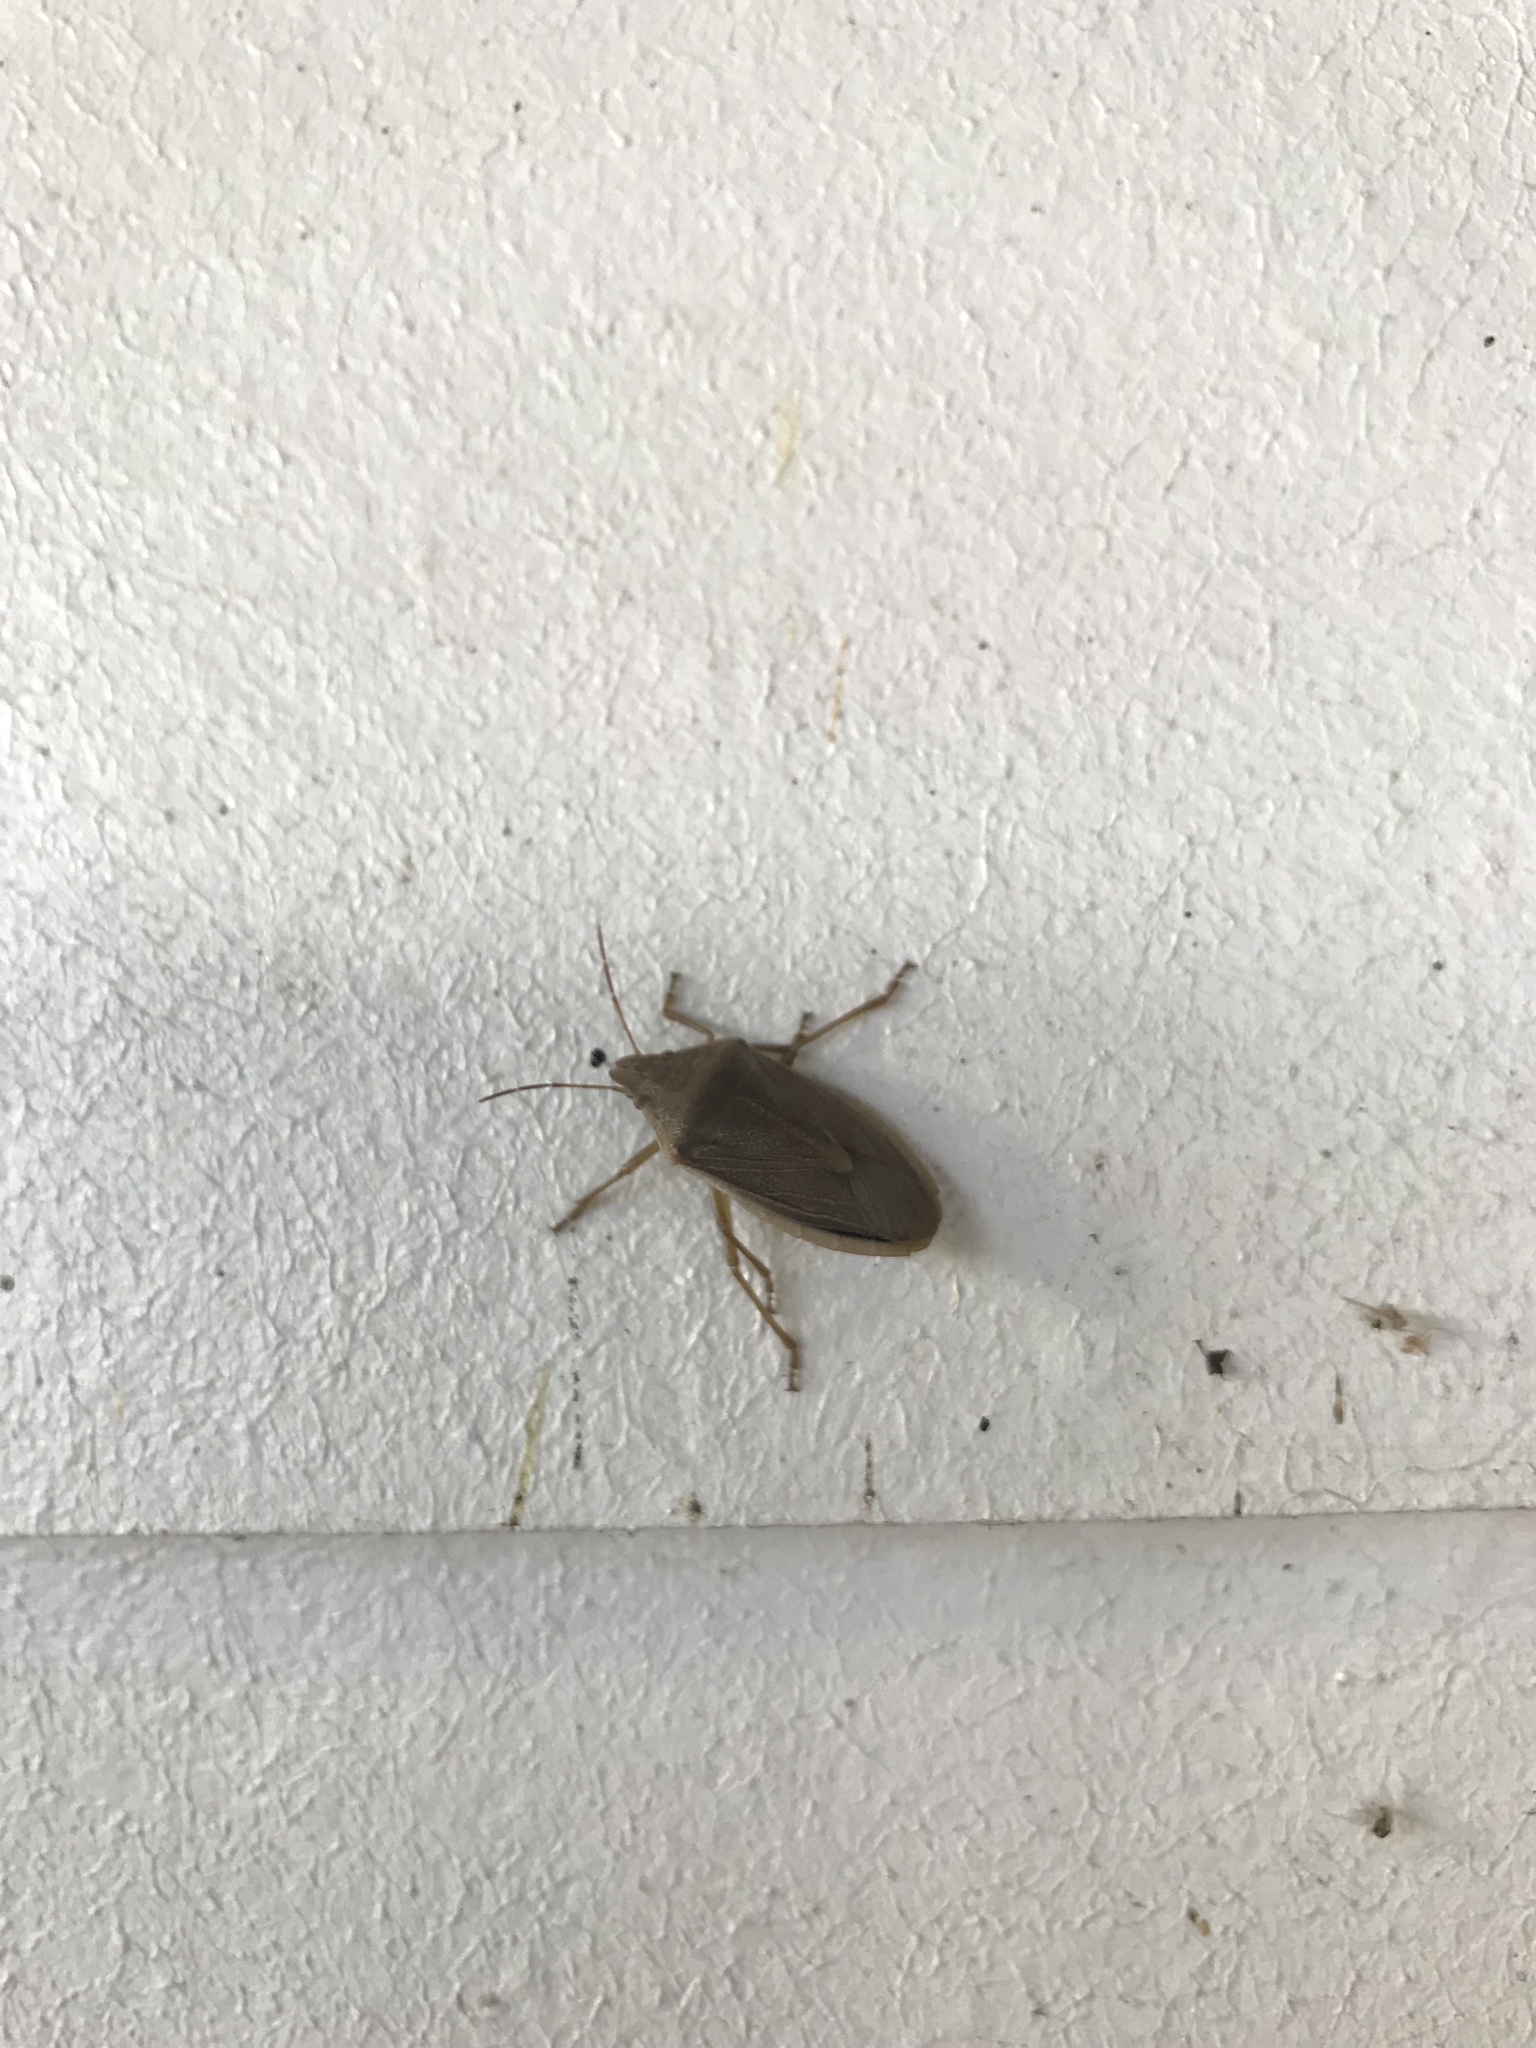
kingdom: Animalia
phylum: Arthropoda
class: Insecta
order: Hemiptera
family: Pentatomidae
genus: Chlorochroa
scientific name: Chlorochroa senilis
